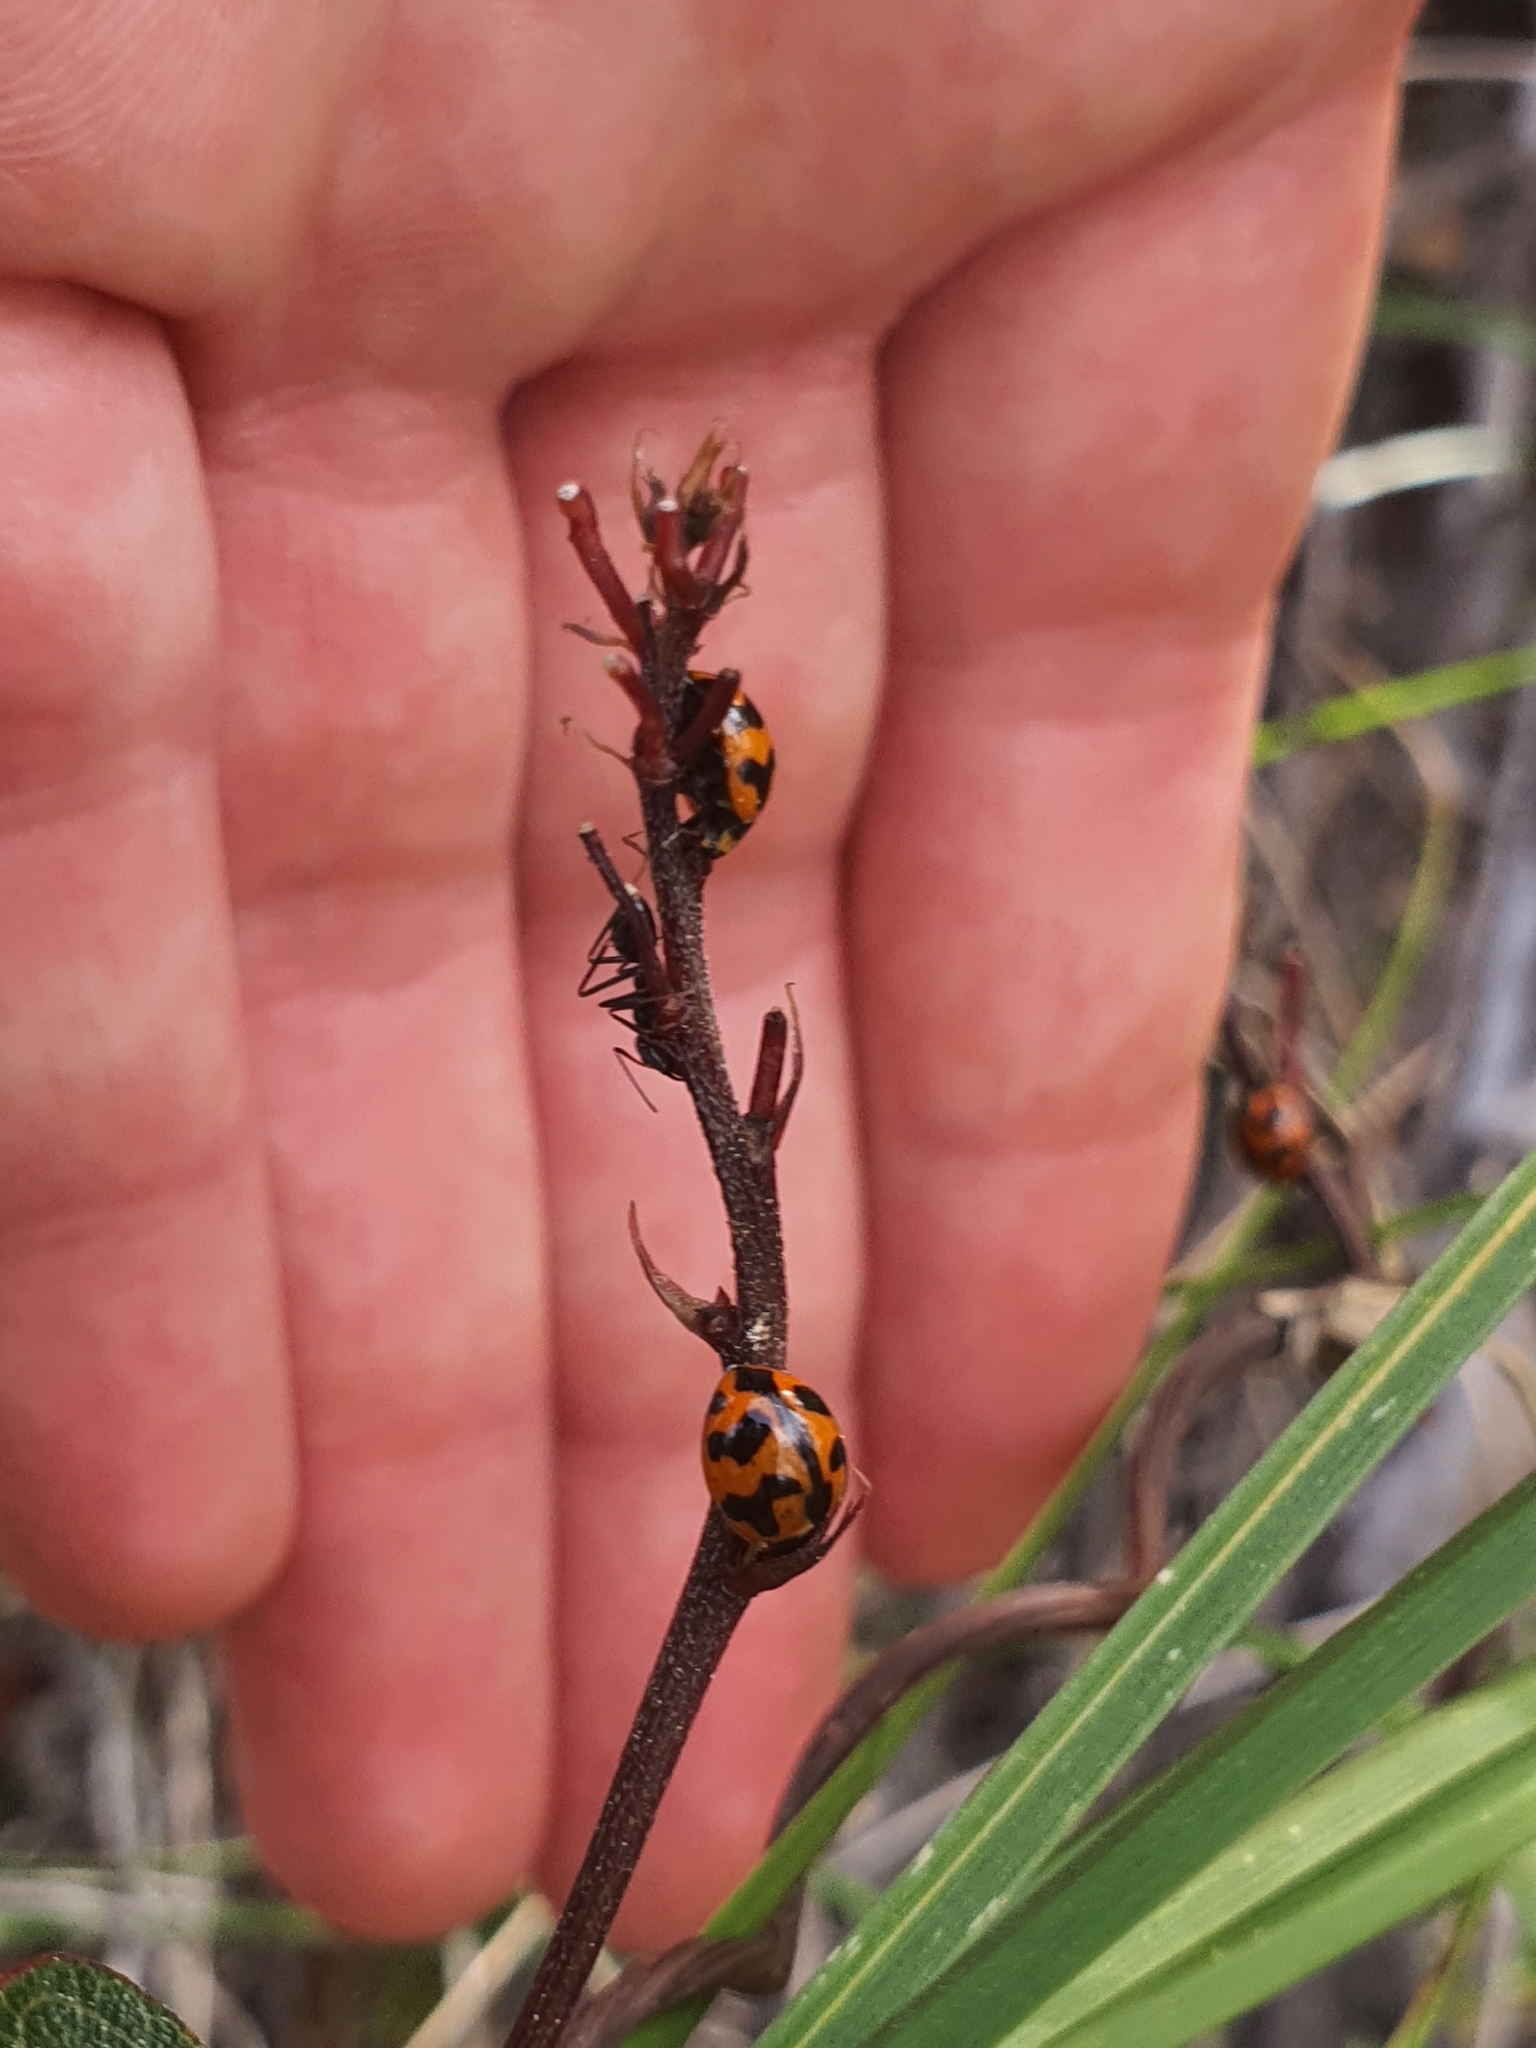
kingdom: Animalia
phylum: Arthropoda
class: Insecta
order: Coleoptera
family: Coccinellidae
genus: Coccinella
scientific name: Coccinella transversalis
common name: Transverse lady beetle
